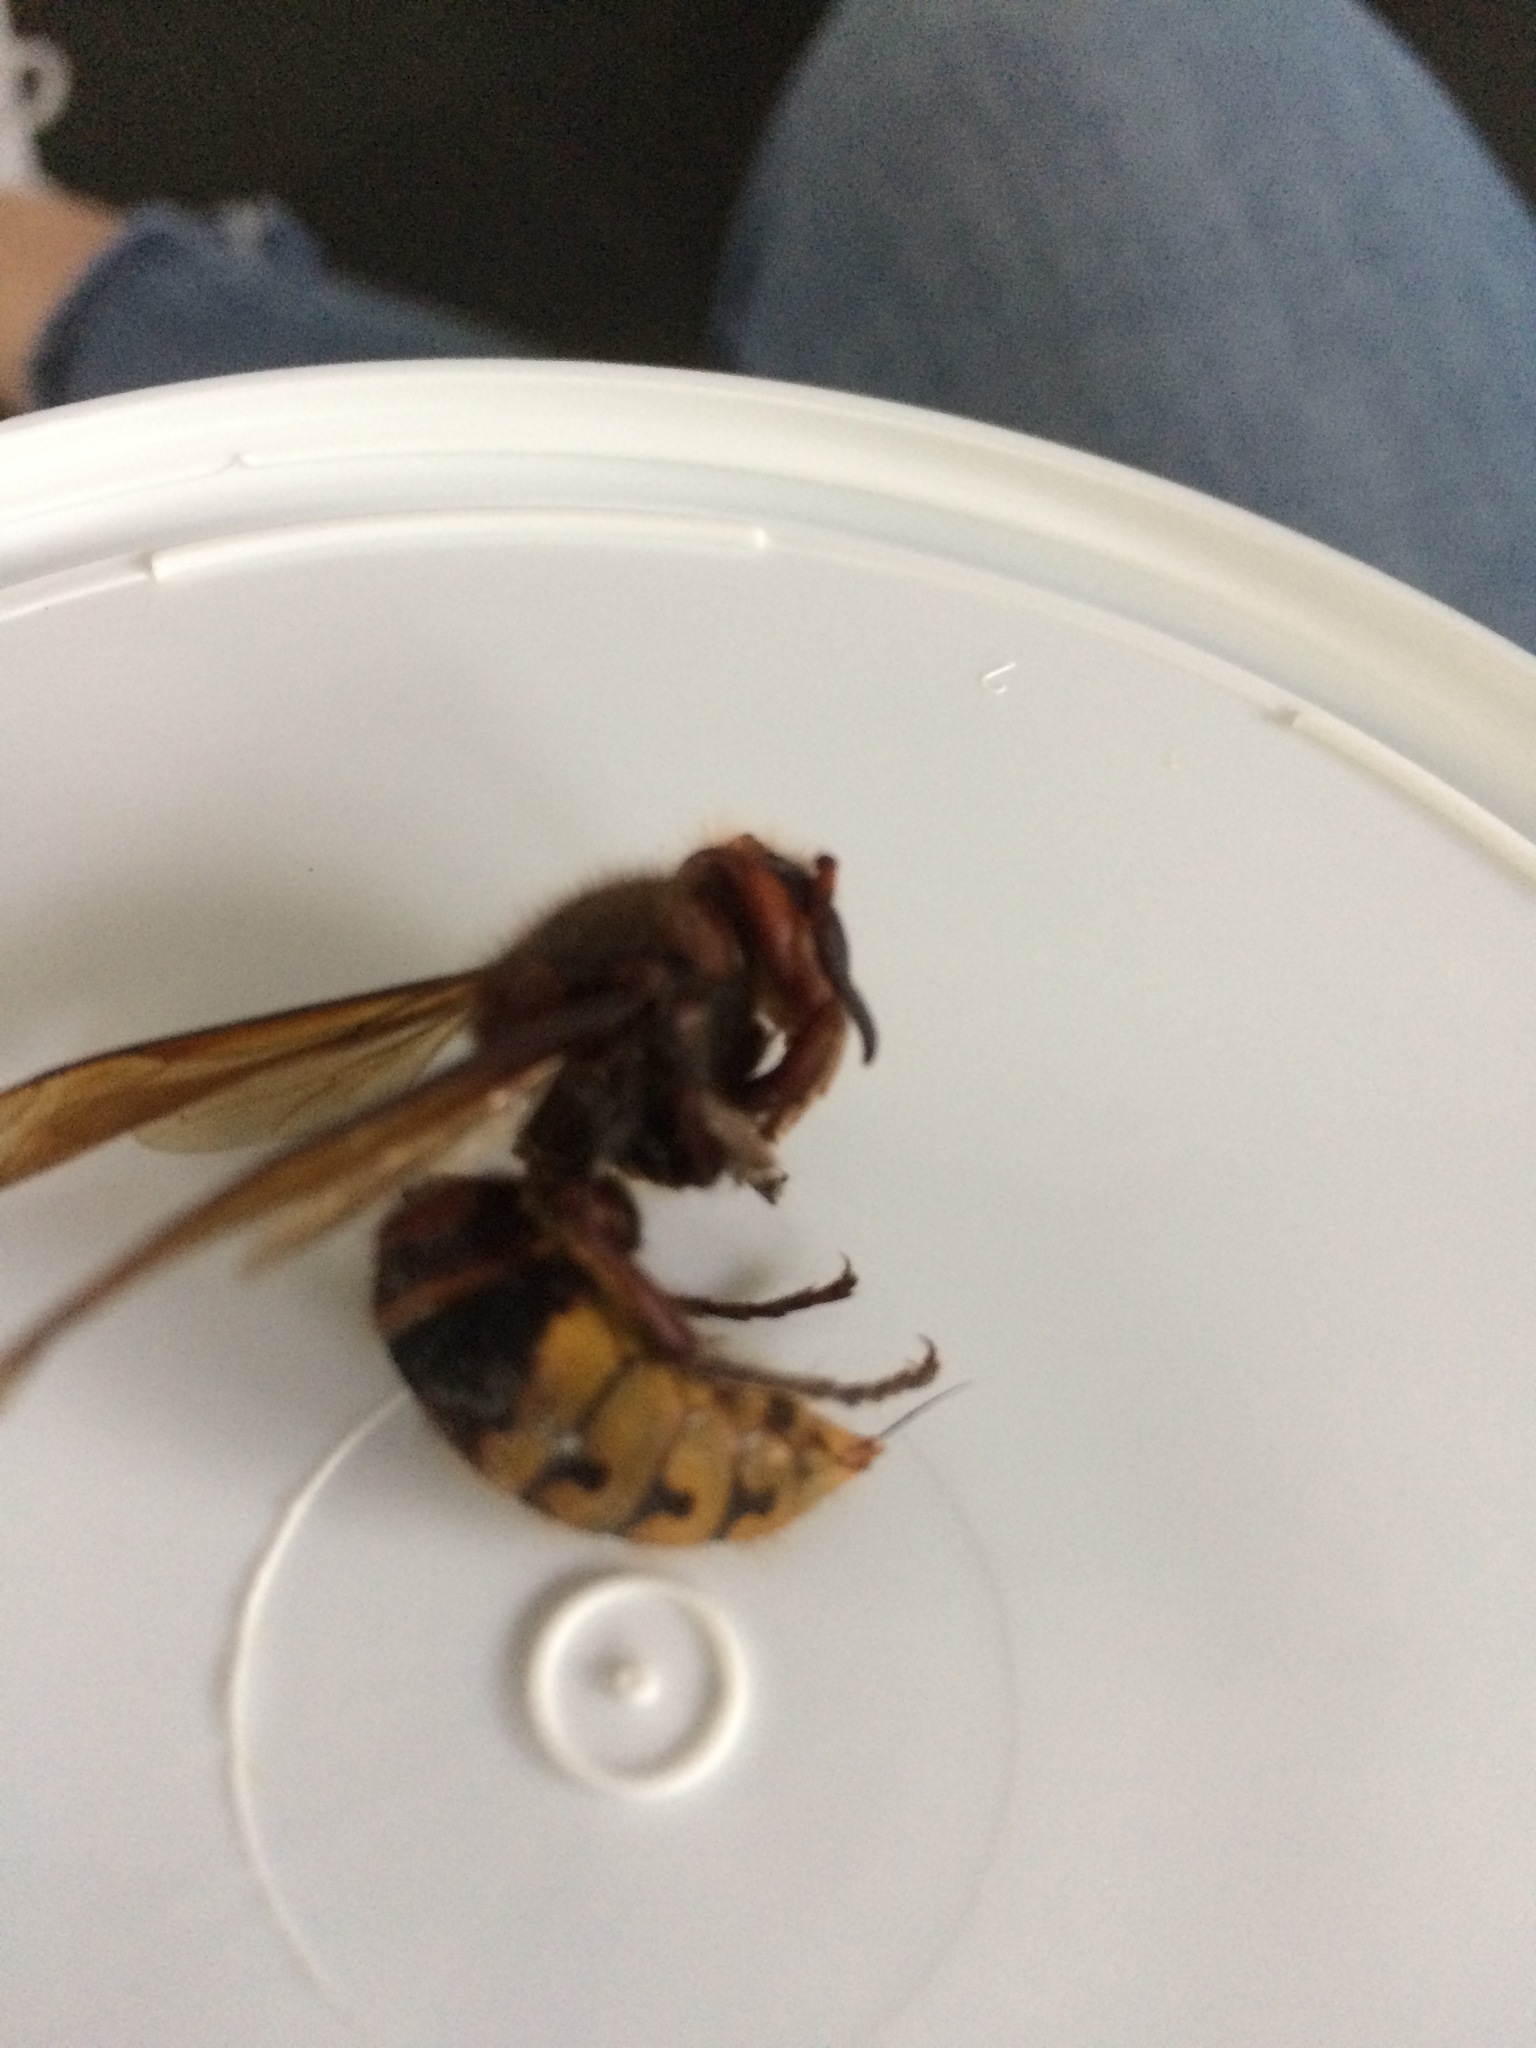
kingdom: Animalia
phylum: Arthropoda
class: Insecta
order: Hymenoptera
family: Vespidae
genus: Vespa
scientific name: Vespa crabro
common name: Hornet
